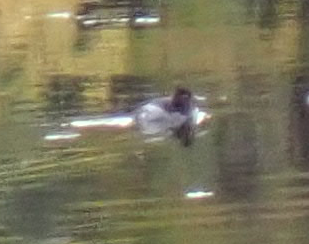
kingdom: Animalia
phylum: Chordata
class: Aves
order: Anseriformes
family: Anatidae
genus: Aythya
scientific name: Aythya collaris
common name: Ring-necked duck
